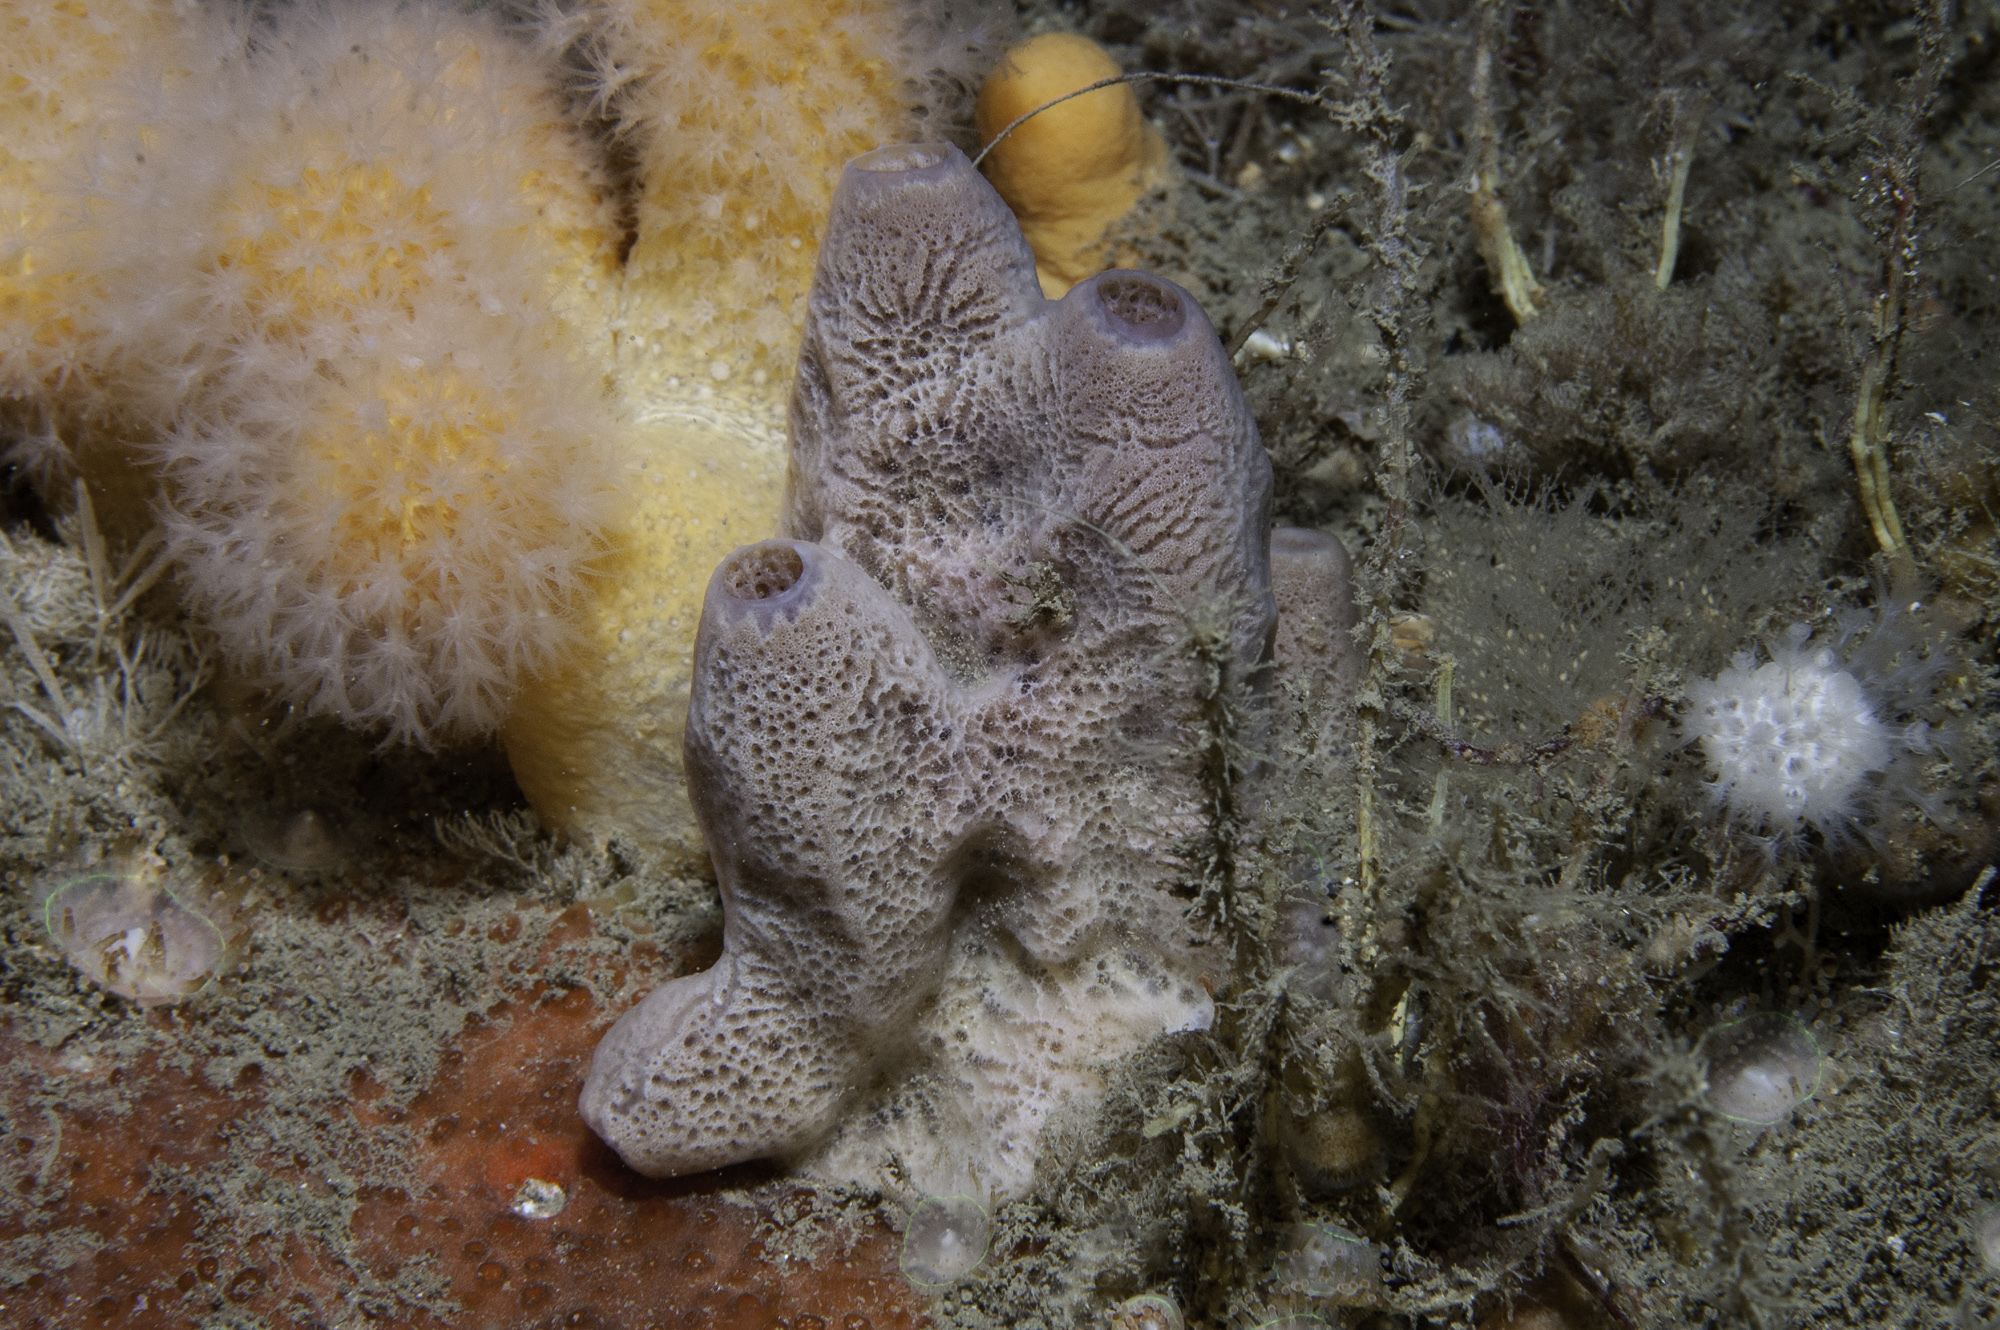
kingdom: Animalia
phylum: Porifera
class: Demospongiae
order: Haplosclerida
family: Chalinidae
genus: Haliclona
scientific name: Haliclona viscosa
